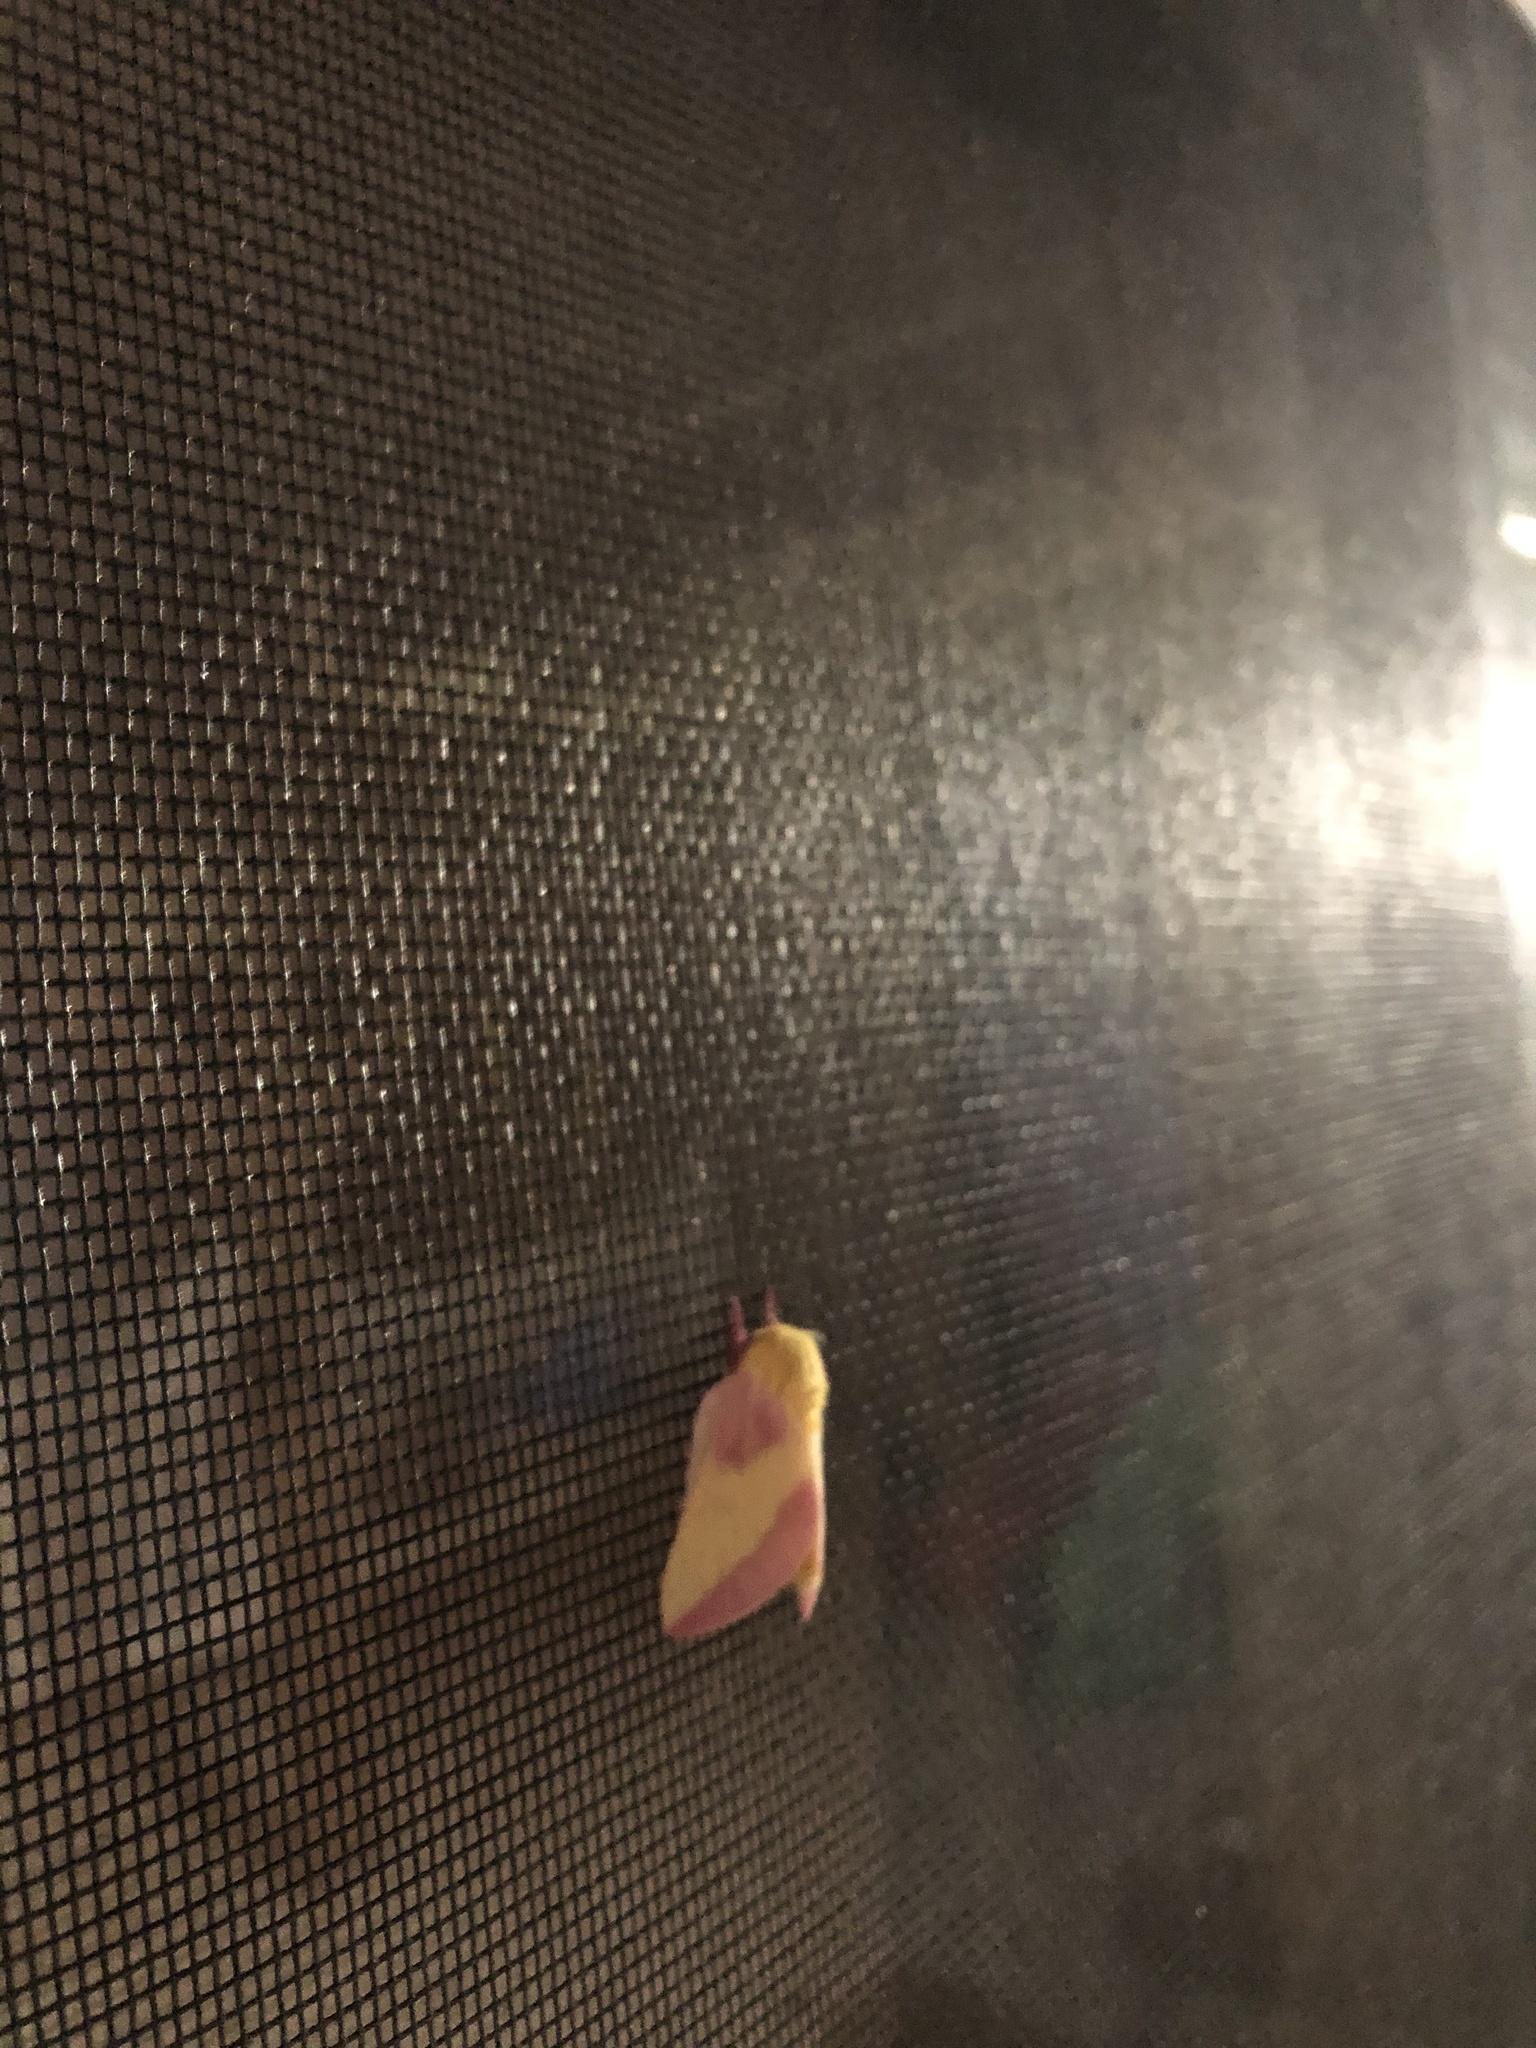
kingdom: Animalia
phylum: Arthropoda
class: Insecta
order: Lepidoptera
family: Saturniidae
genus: Dryocampa
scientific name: Dryocampa rubicunda
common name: Rosy maple moth
